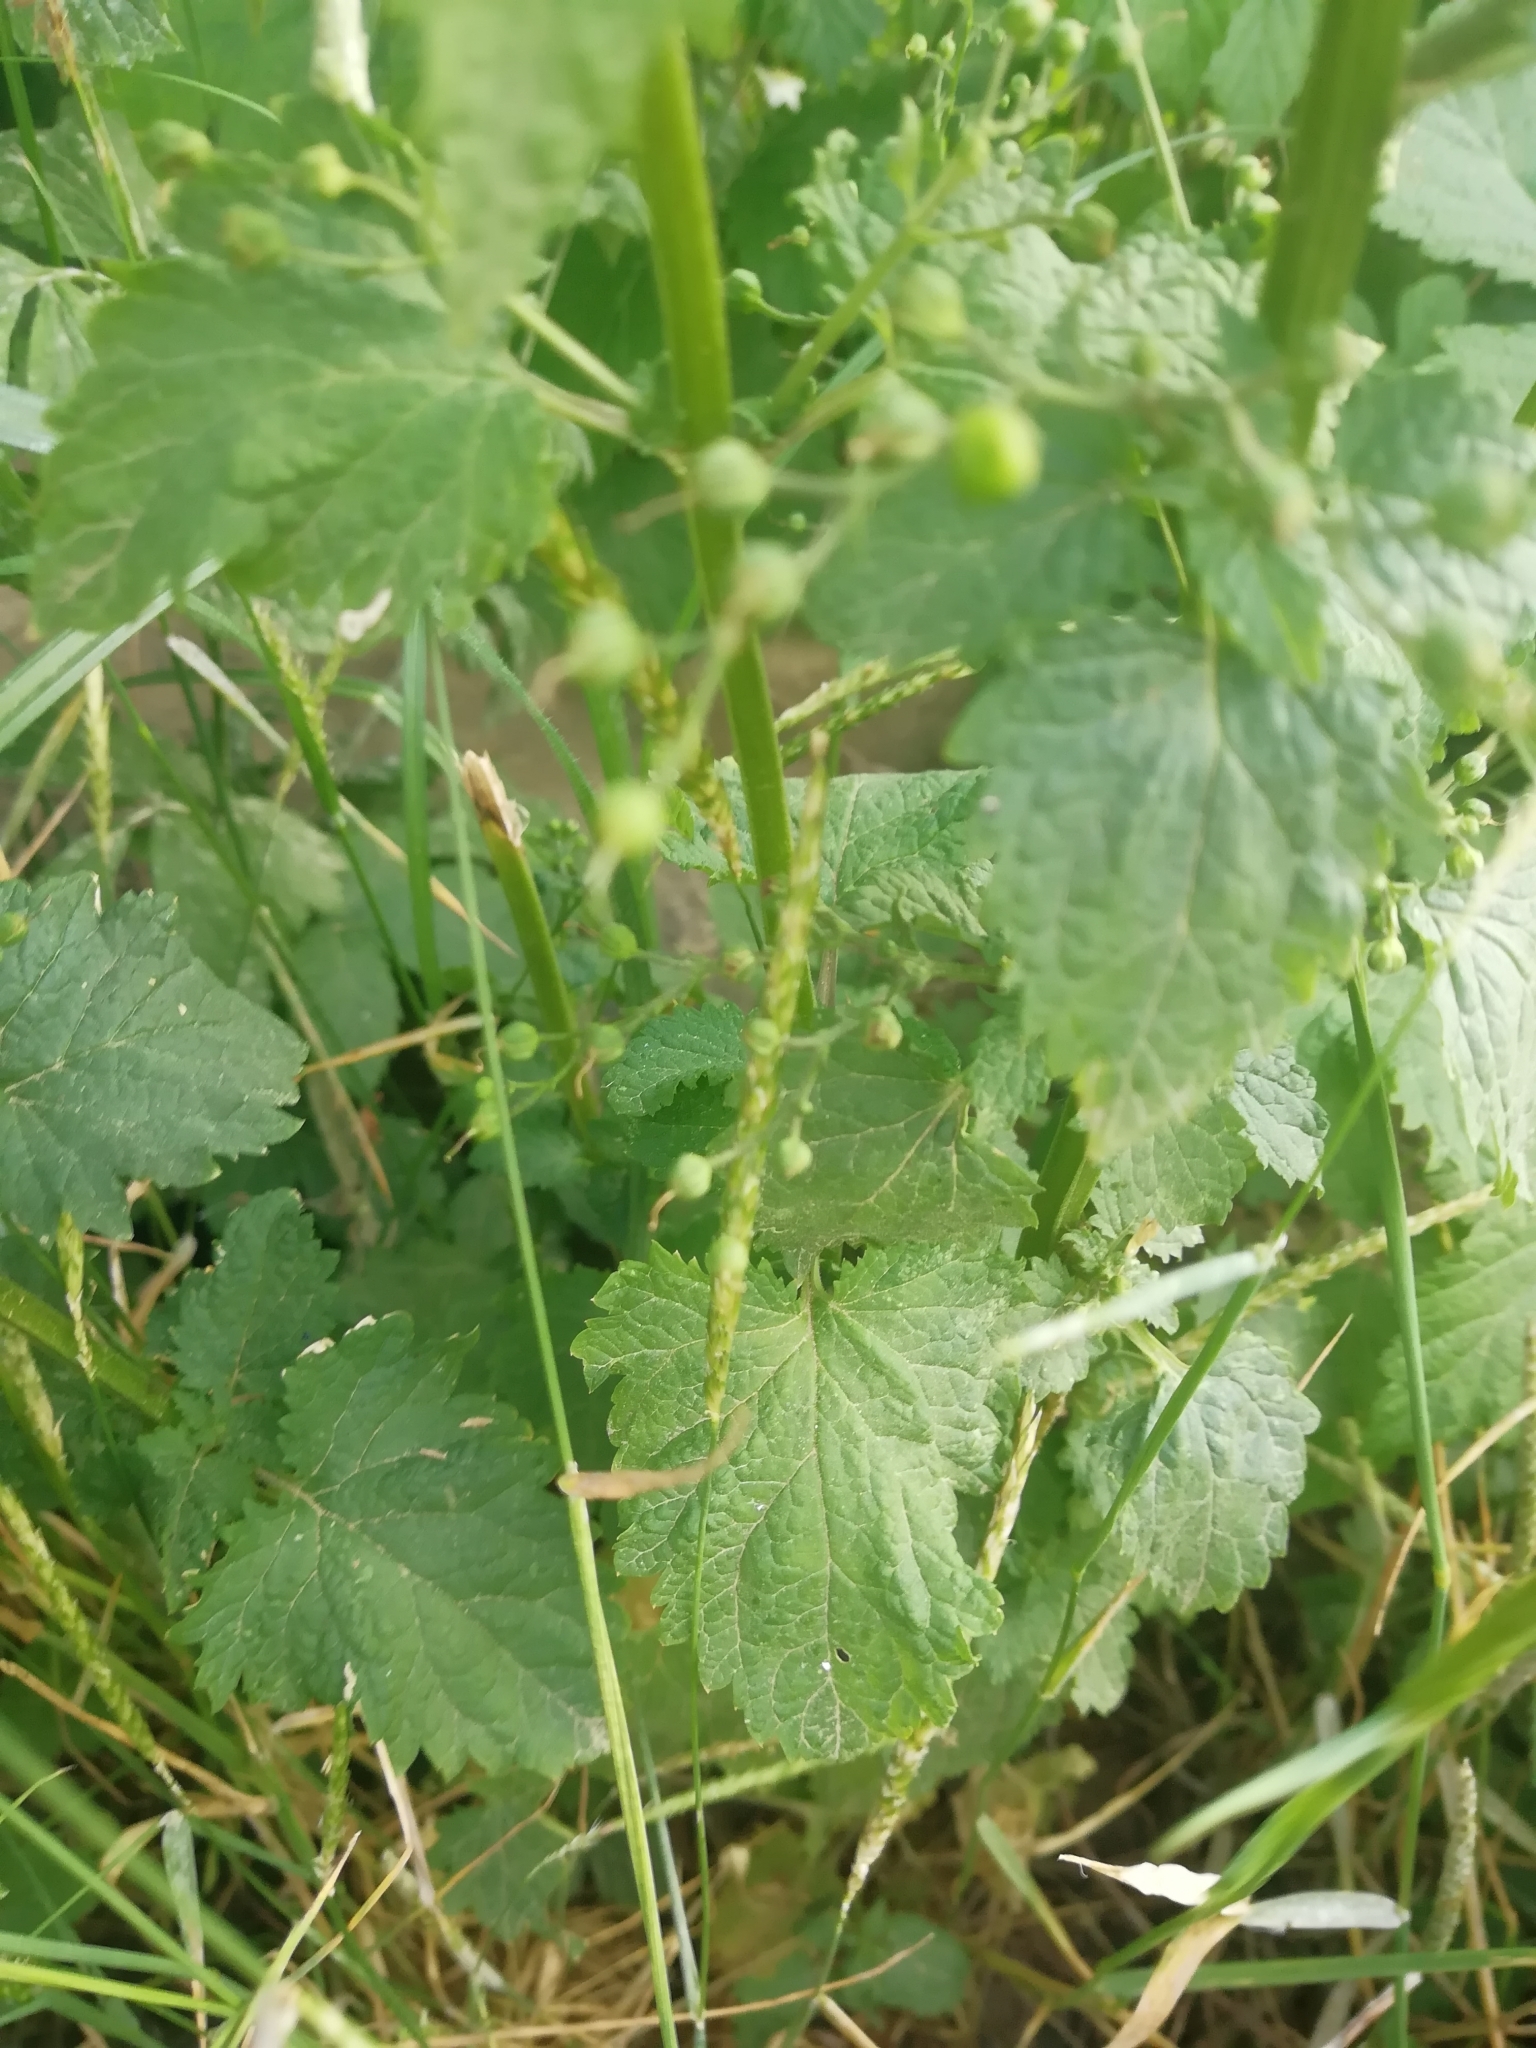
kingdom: Plantae
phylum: Tracheophyta
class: Magnoliopsida
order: Lamiales
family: Scrophulariaceae
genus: Scrophularia
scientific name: Scrophularia scopolii
